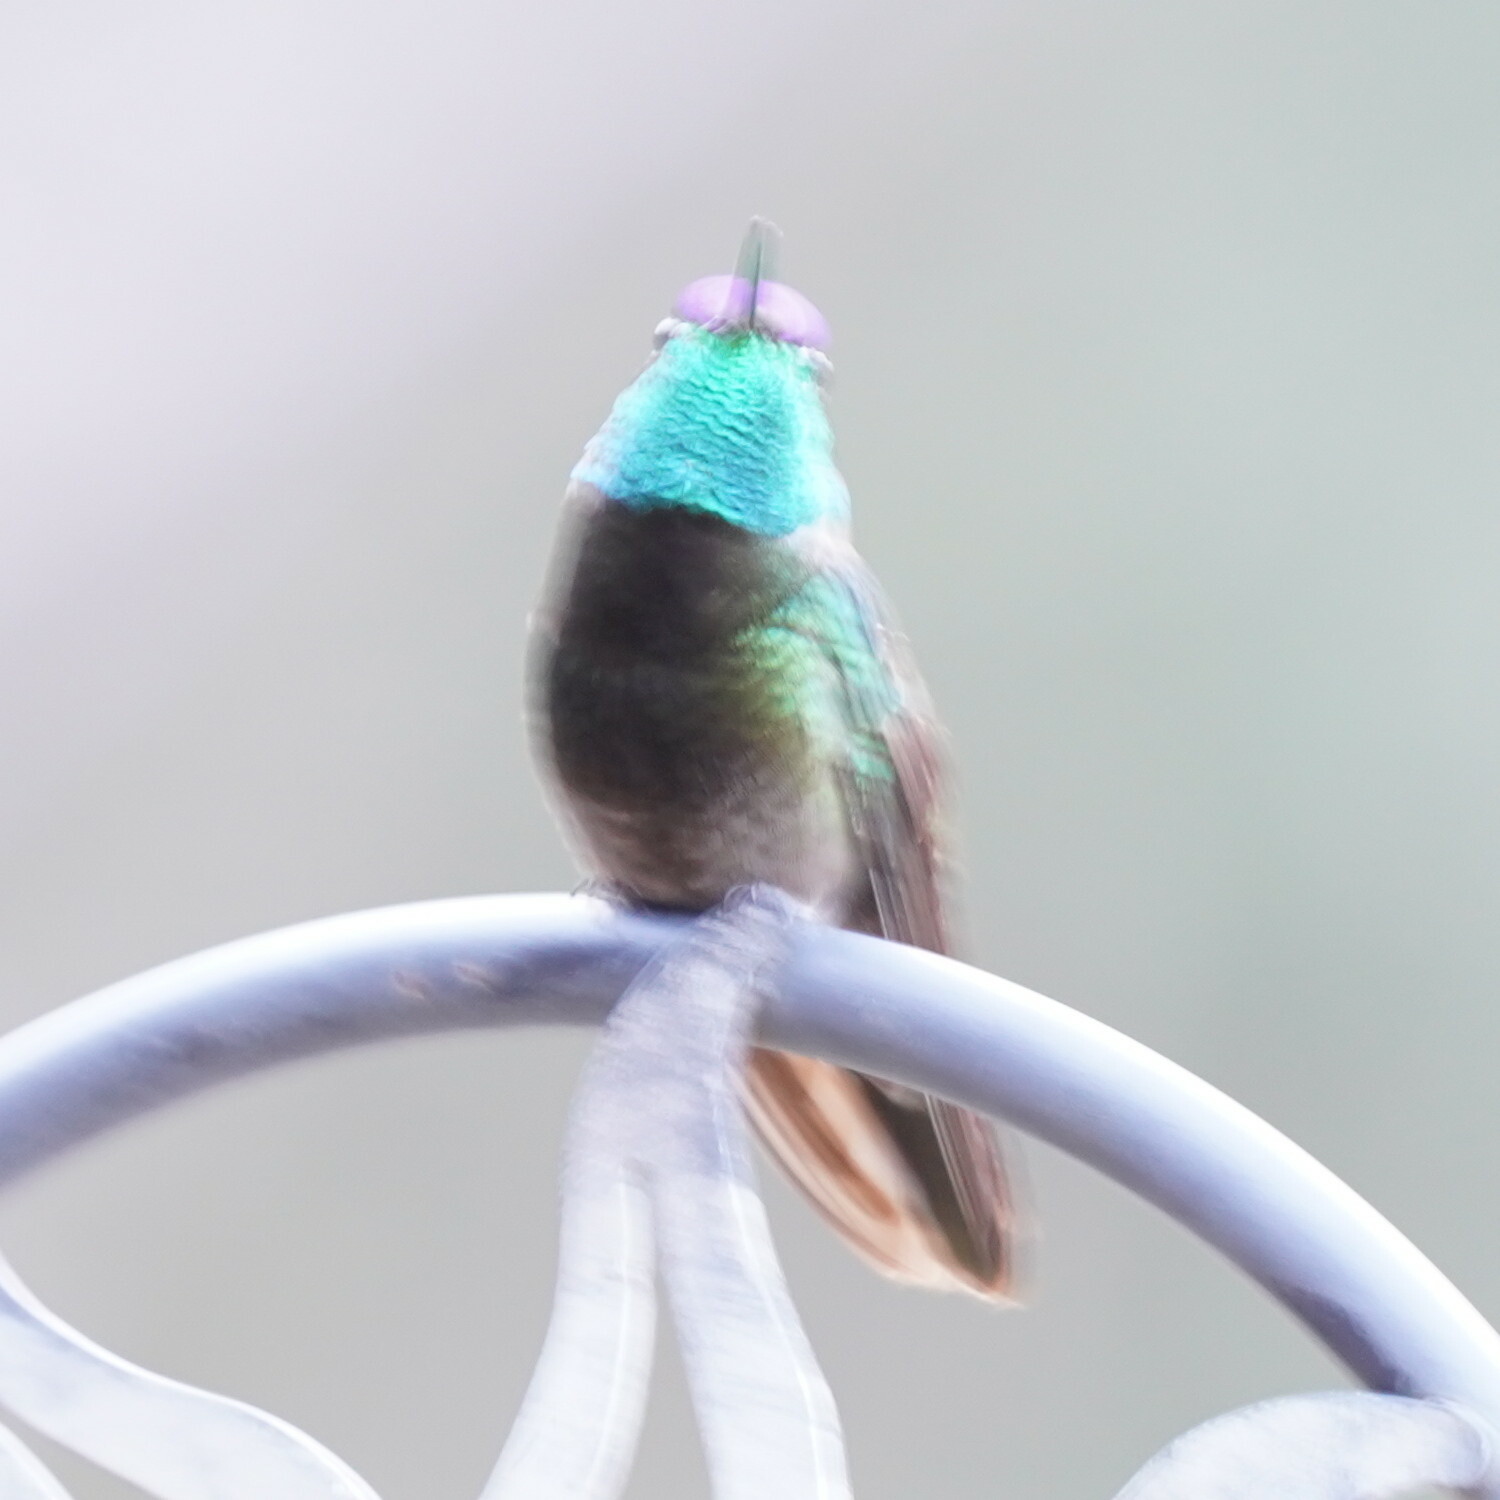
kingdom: Animalia
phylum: Chordata
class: Aves
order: Apodiformes
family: Trochilidae
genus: Eugenes
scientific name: Eugenes fulgens
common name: Magnificent hummingbird
